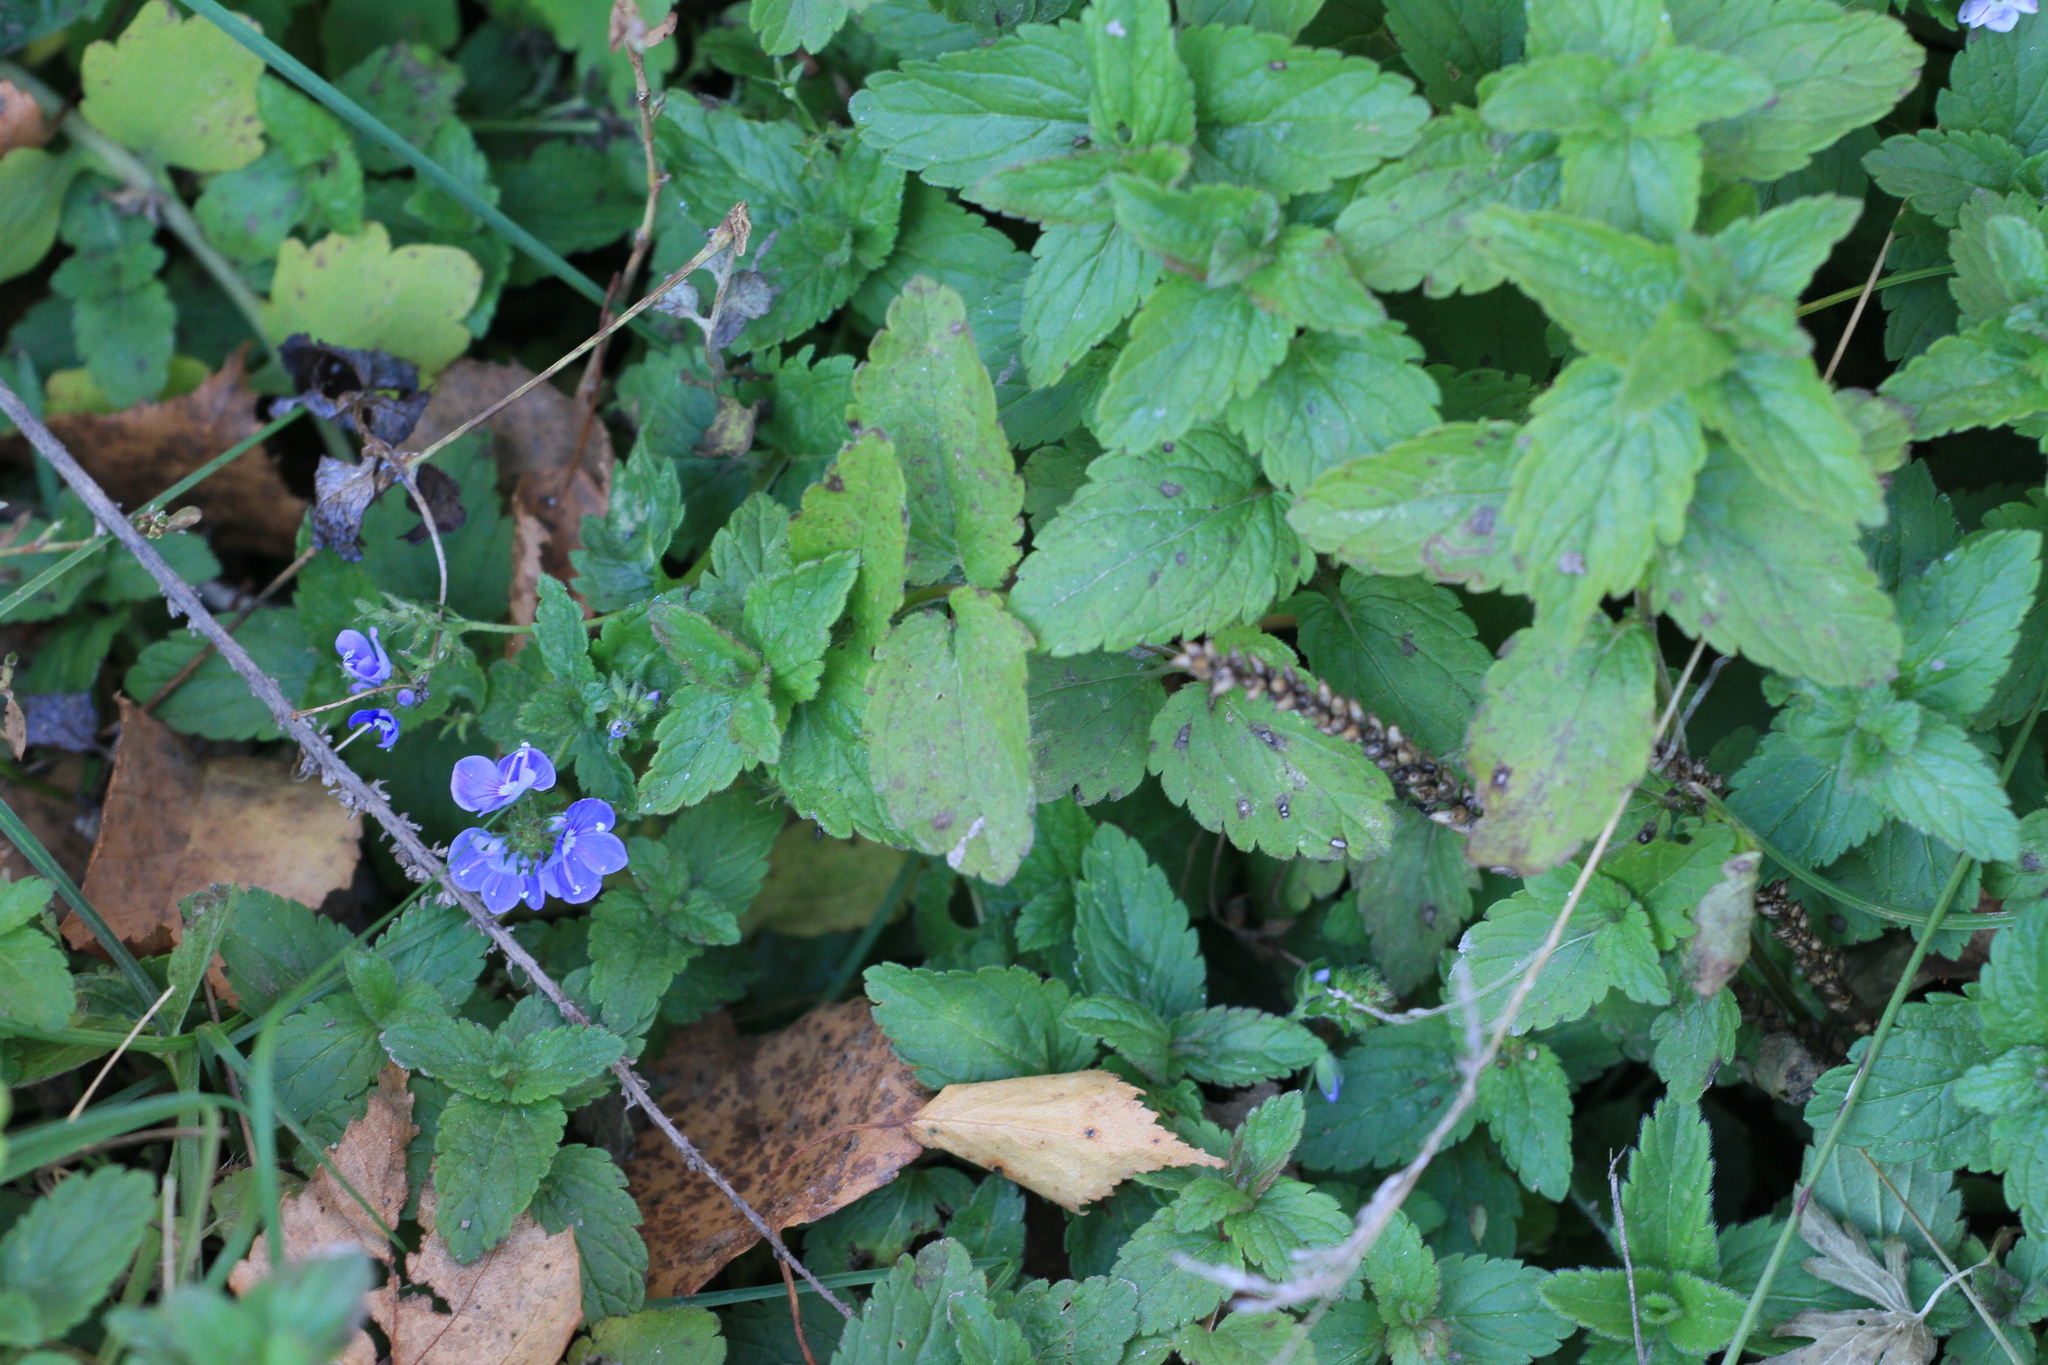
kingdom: Plantae
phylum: Tracheophyta
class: Magnoliopsida
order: Lamiales
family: Plantaginaceae
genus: Veronica
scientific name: Veronica chamaedrys
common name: Germander speedwell
